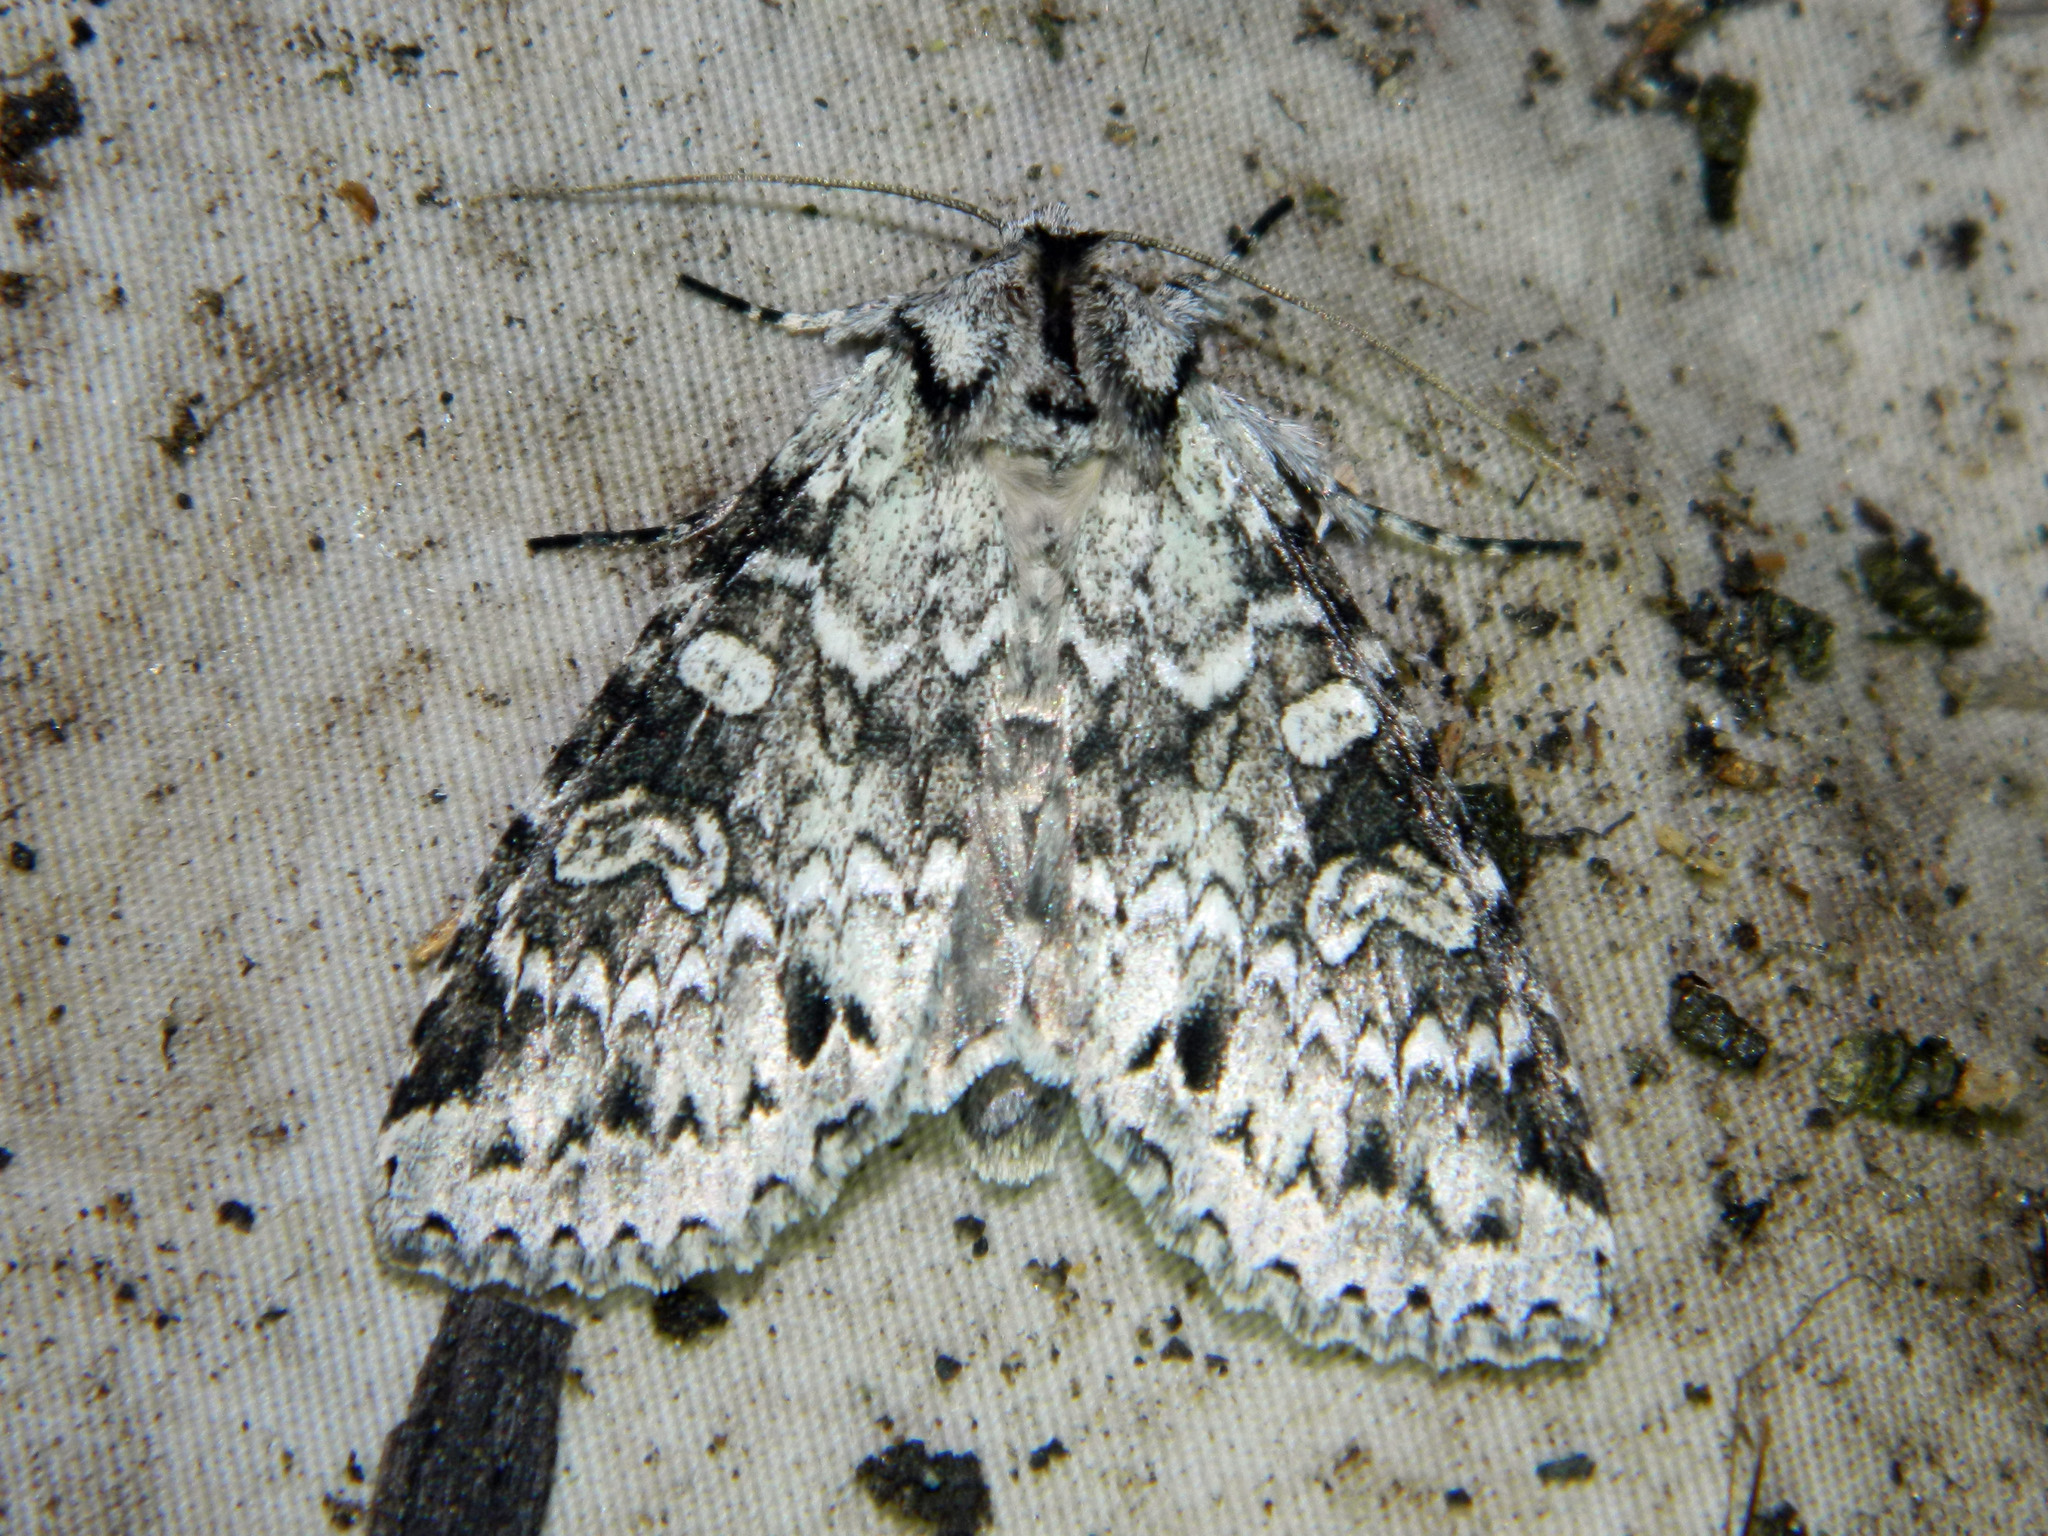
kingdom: Animalia
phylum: Arthropoda
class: Insecta
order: Lepidoptera
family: Noctuidae
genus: Polia
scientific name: Polia nimbosa
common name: Stormy arches
